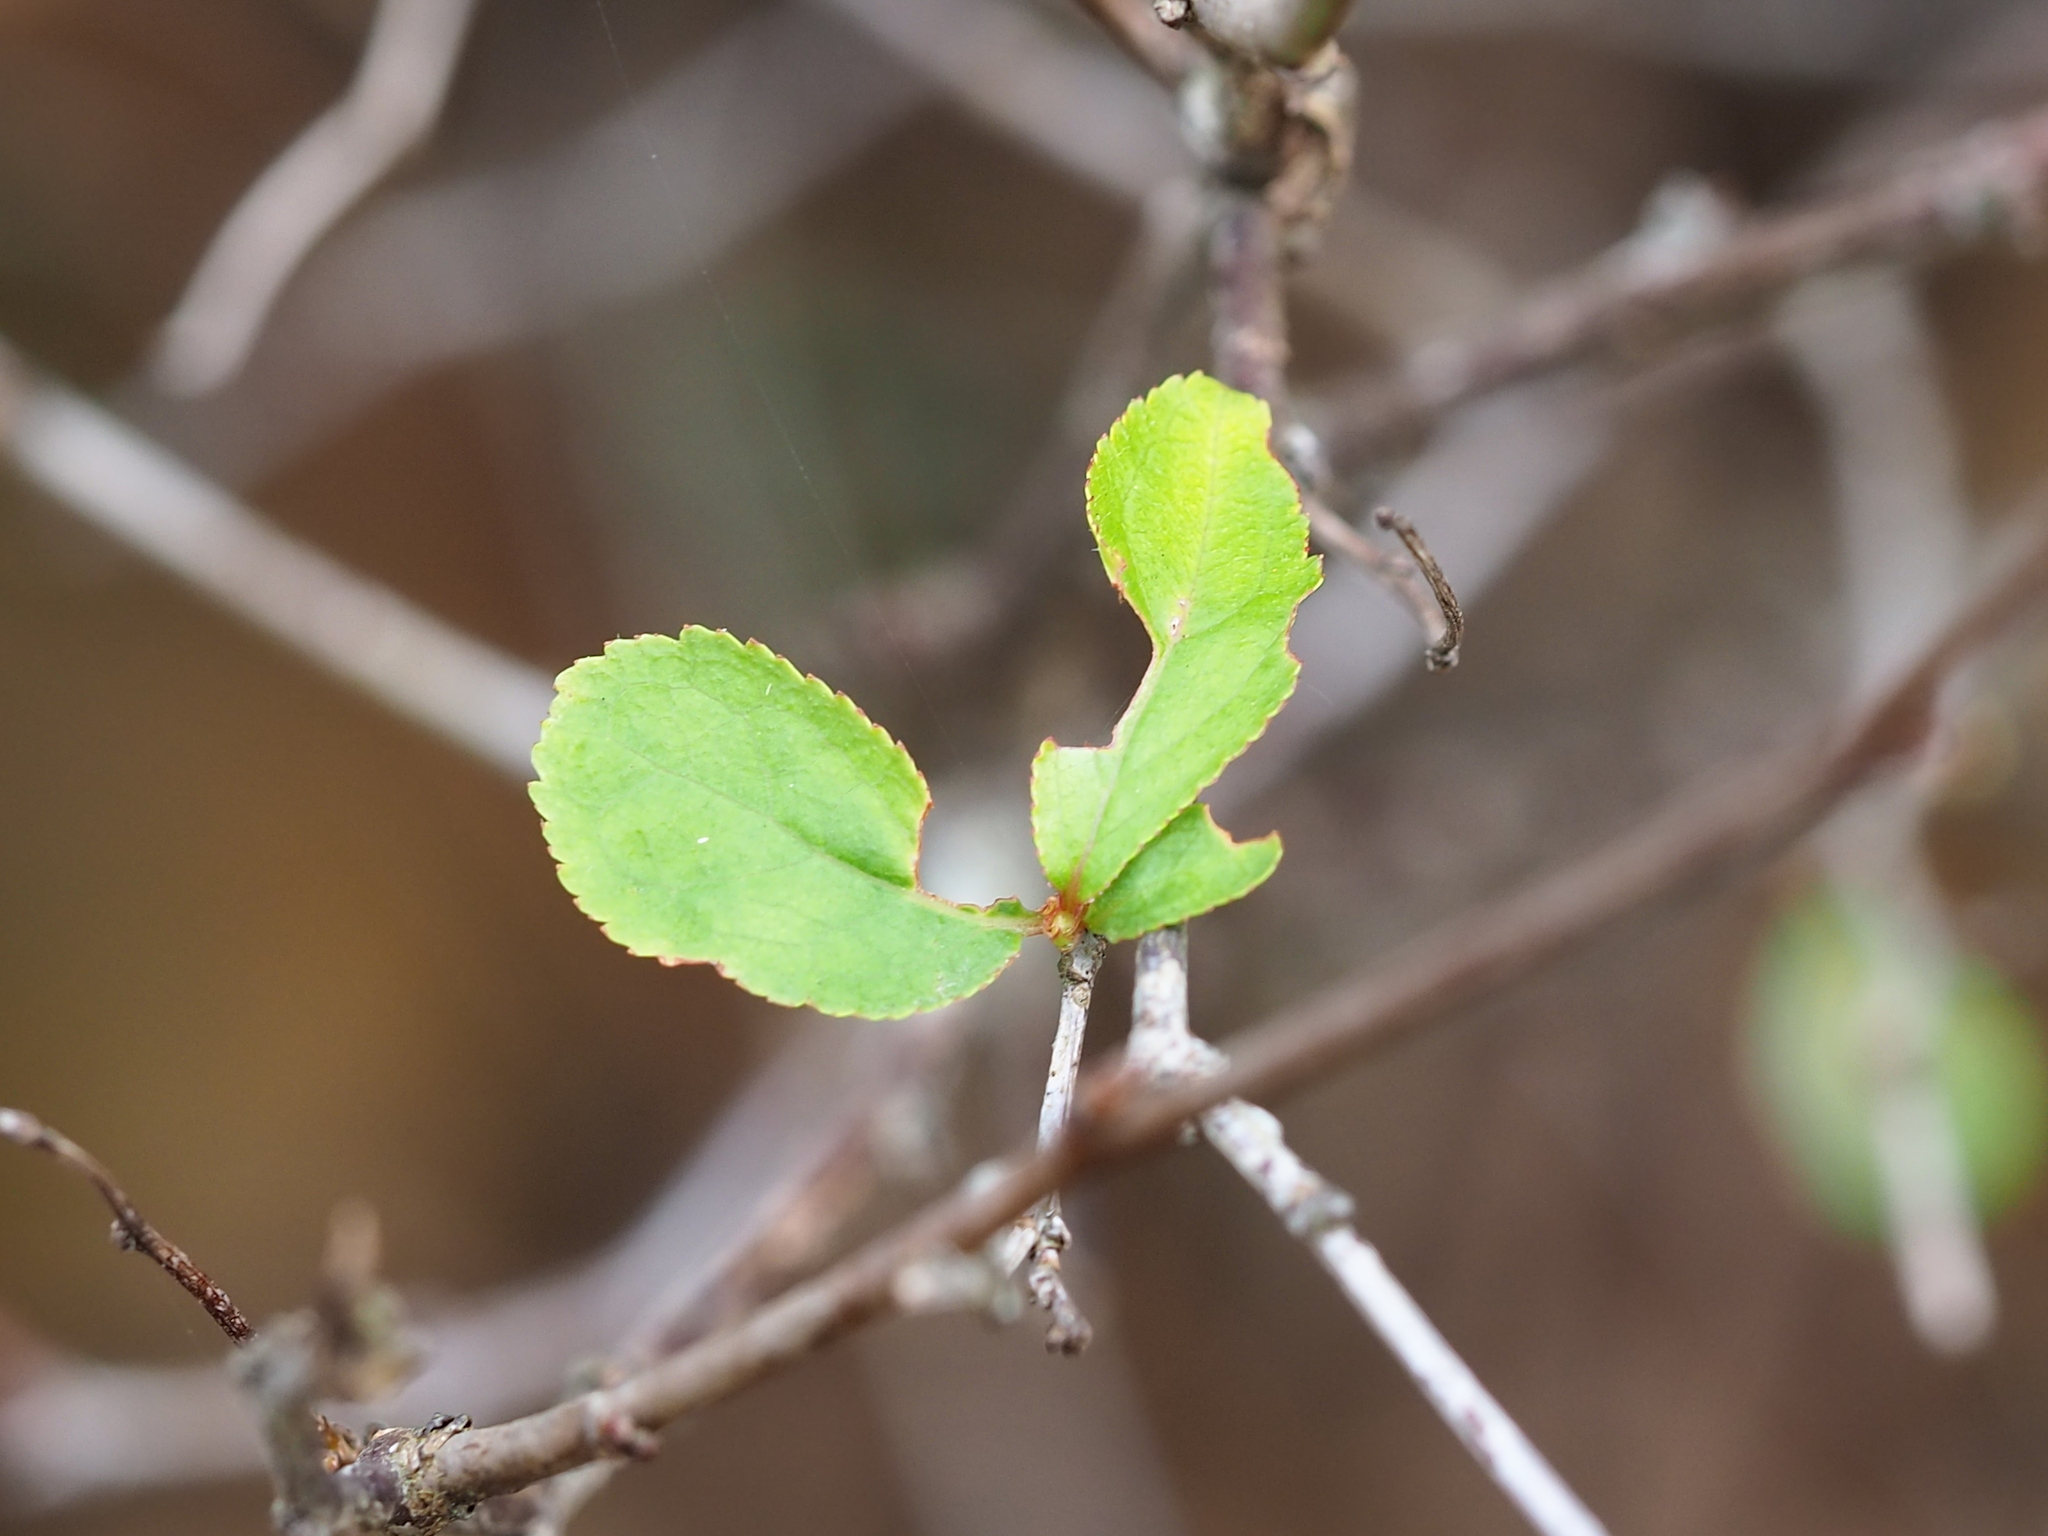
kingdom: Plantae
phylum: Tracheophyta
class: Magnoliopsida
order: Rosales
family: Rosaceae
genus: Prunus
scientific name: Prunus pogonostyla
